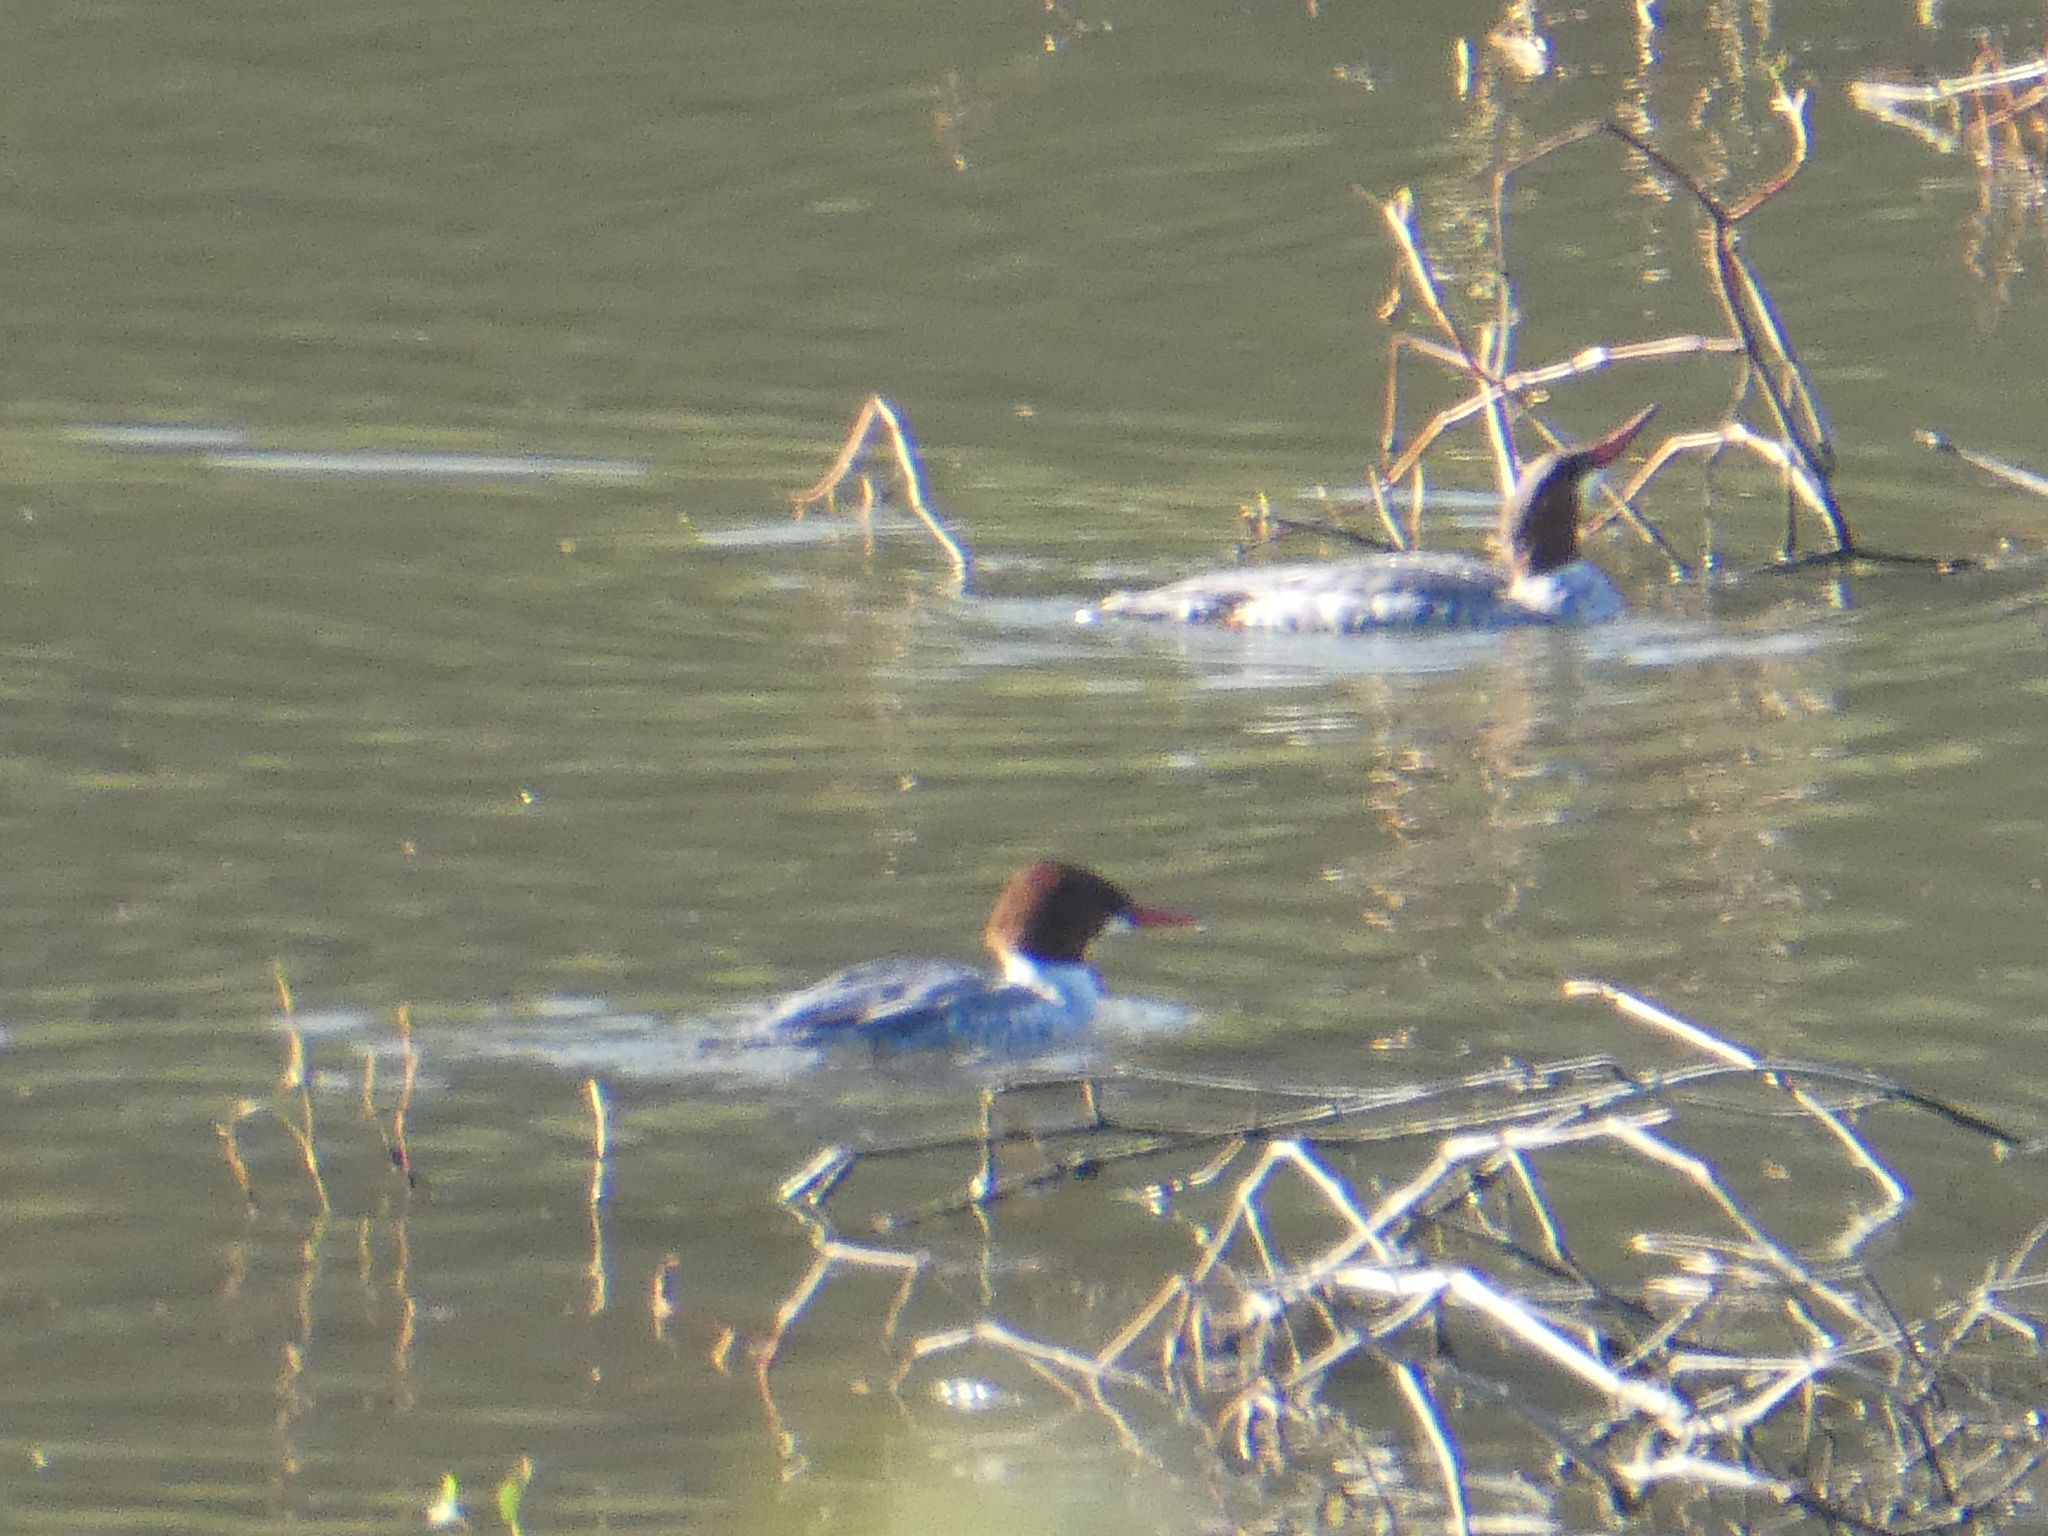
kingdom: Animalia
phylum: Chordata
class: Aves
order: Anseriformes
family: Anatidae
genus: Mergus
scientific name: Mergus merganser
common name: Common merganser
